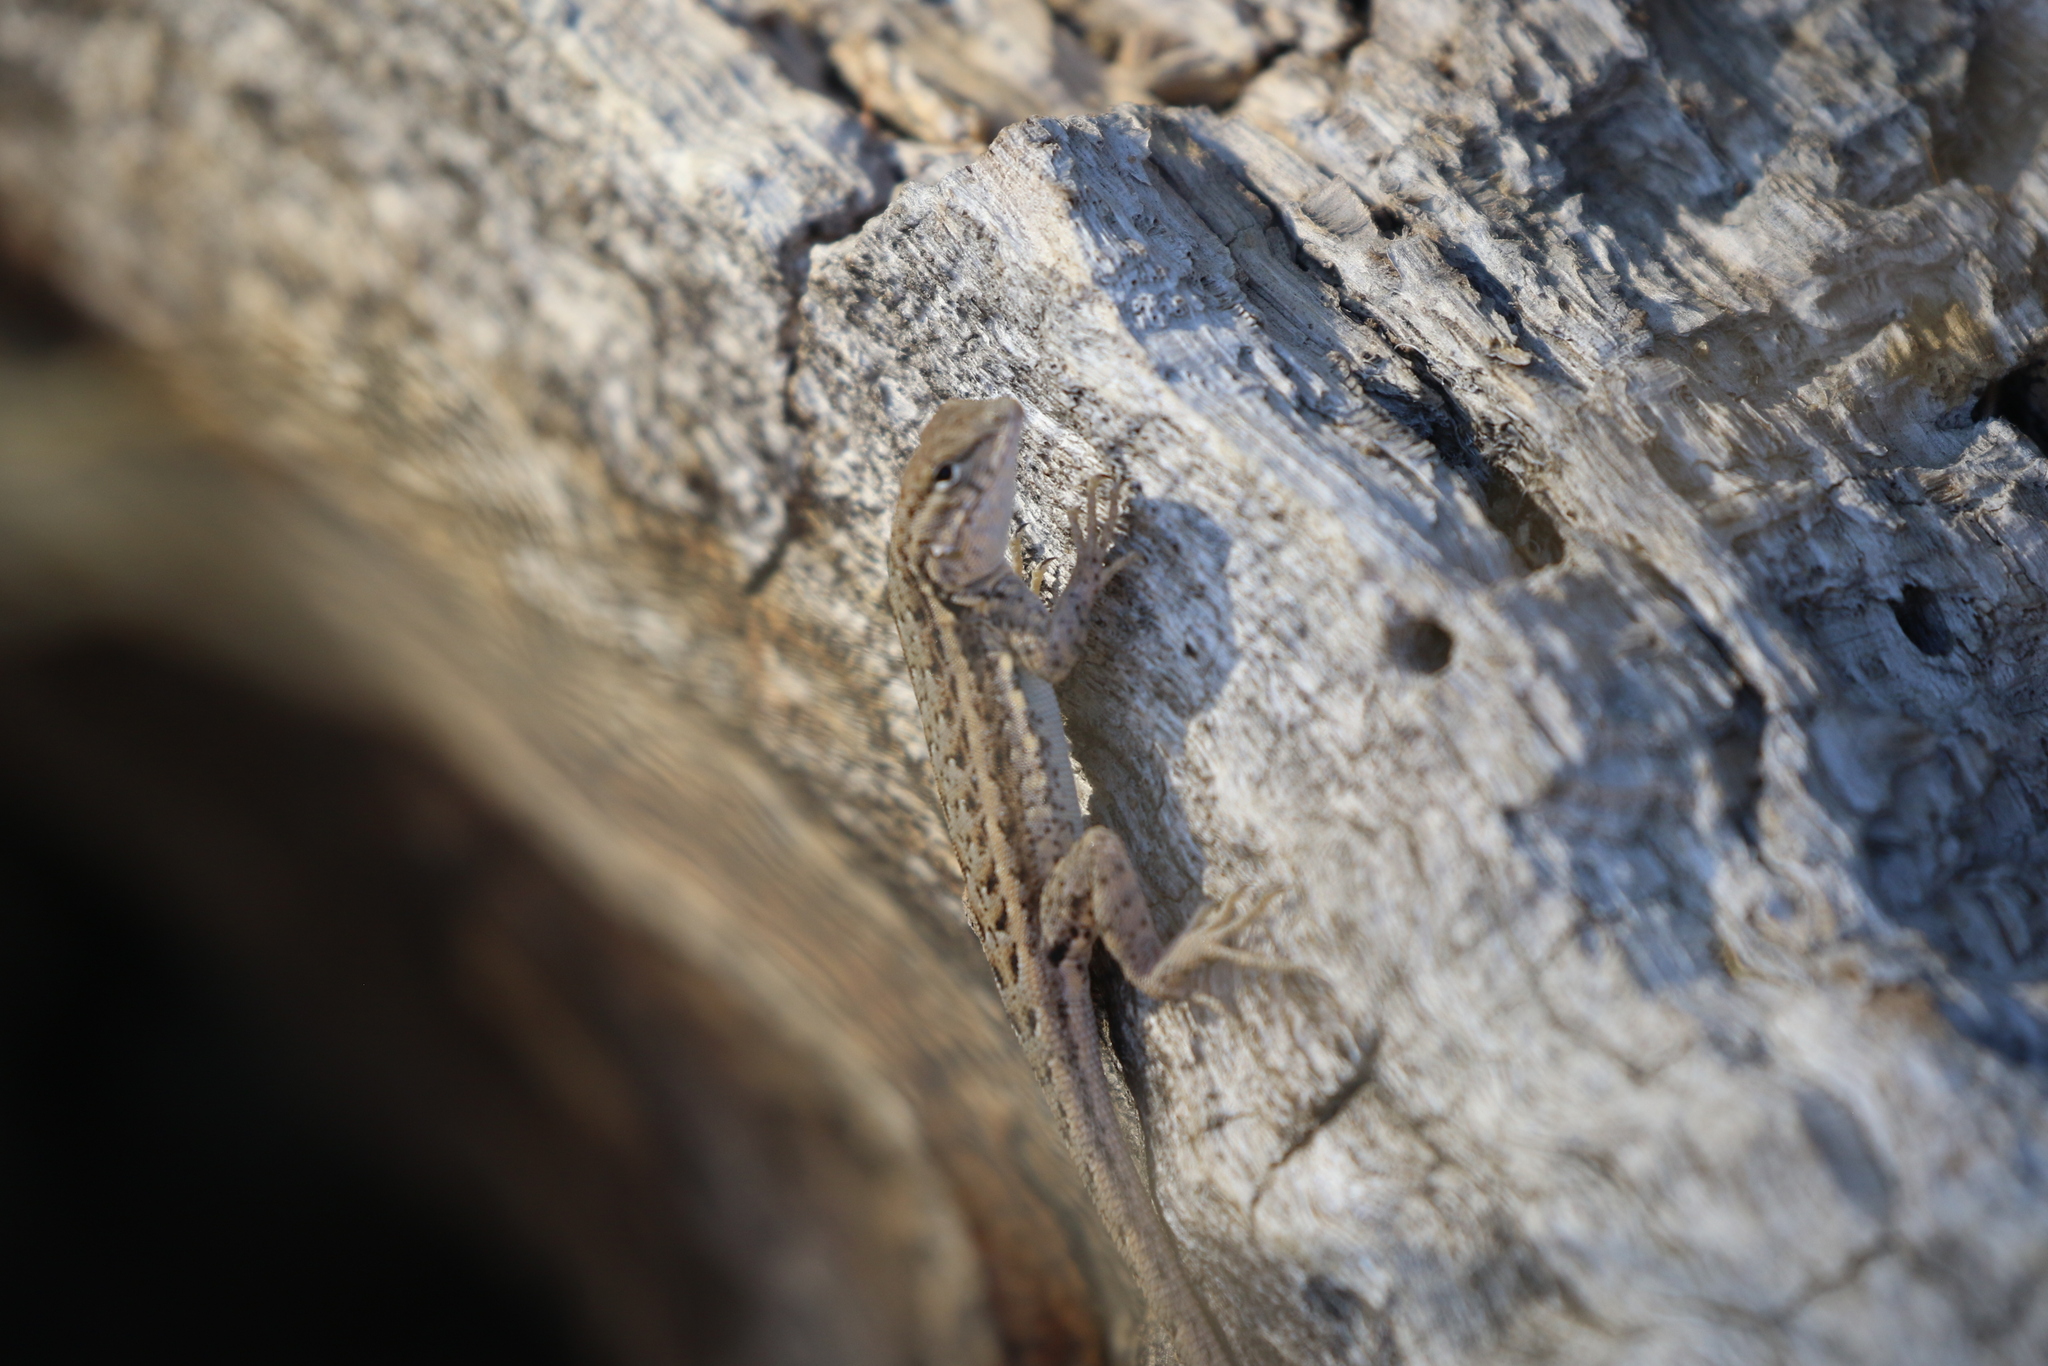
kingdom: Animalia
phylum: Chordata
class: Squamata
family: Phrynosomatidae
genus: Uta
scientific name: Uta stansburiana
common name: Side-blotched lizard
